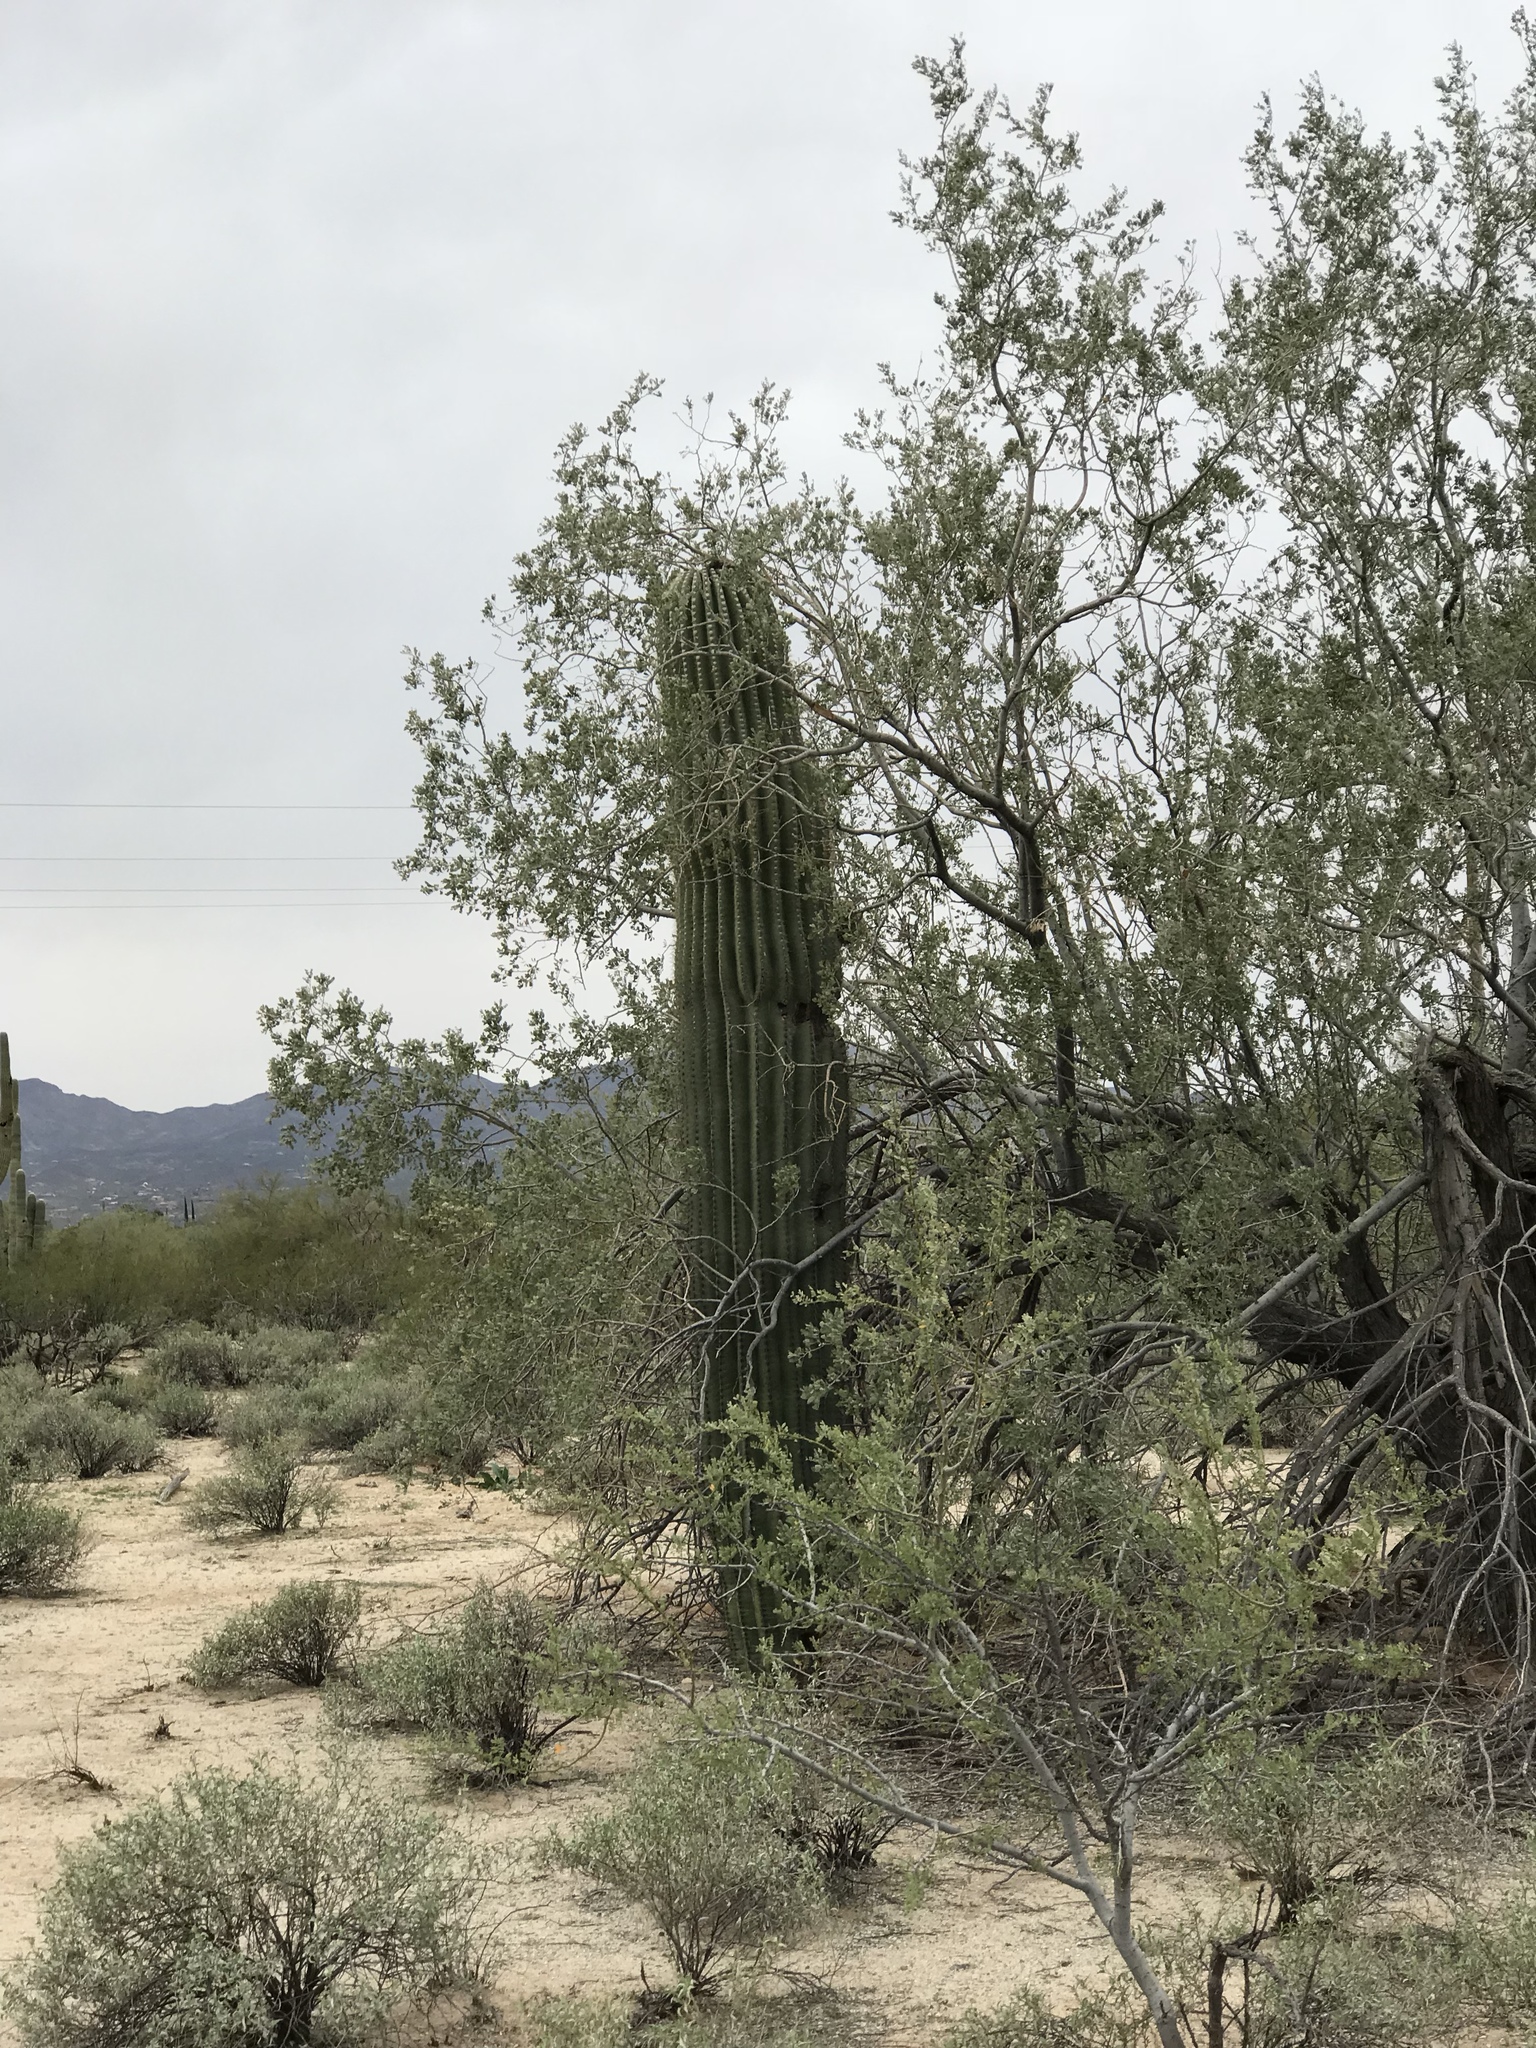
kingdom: Plantae
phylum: Tracheophyta
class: Magnoliopsida
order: Caryophyllales
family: Cactaceae
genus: Carnegiea
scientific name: Carnegiea gigantea
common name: Saguaro
